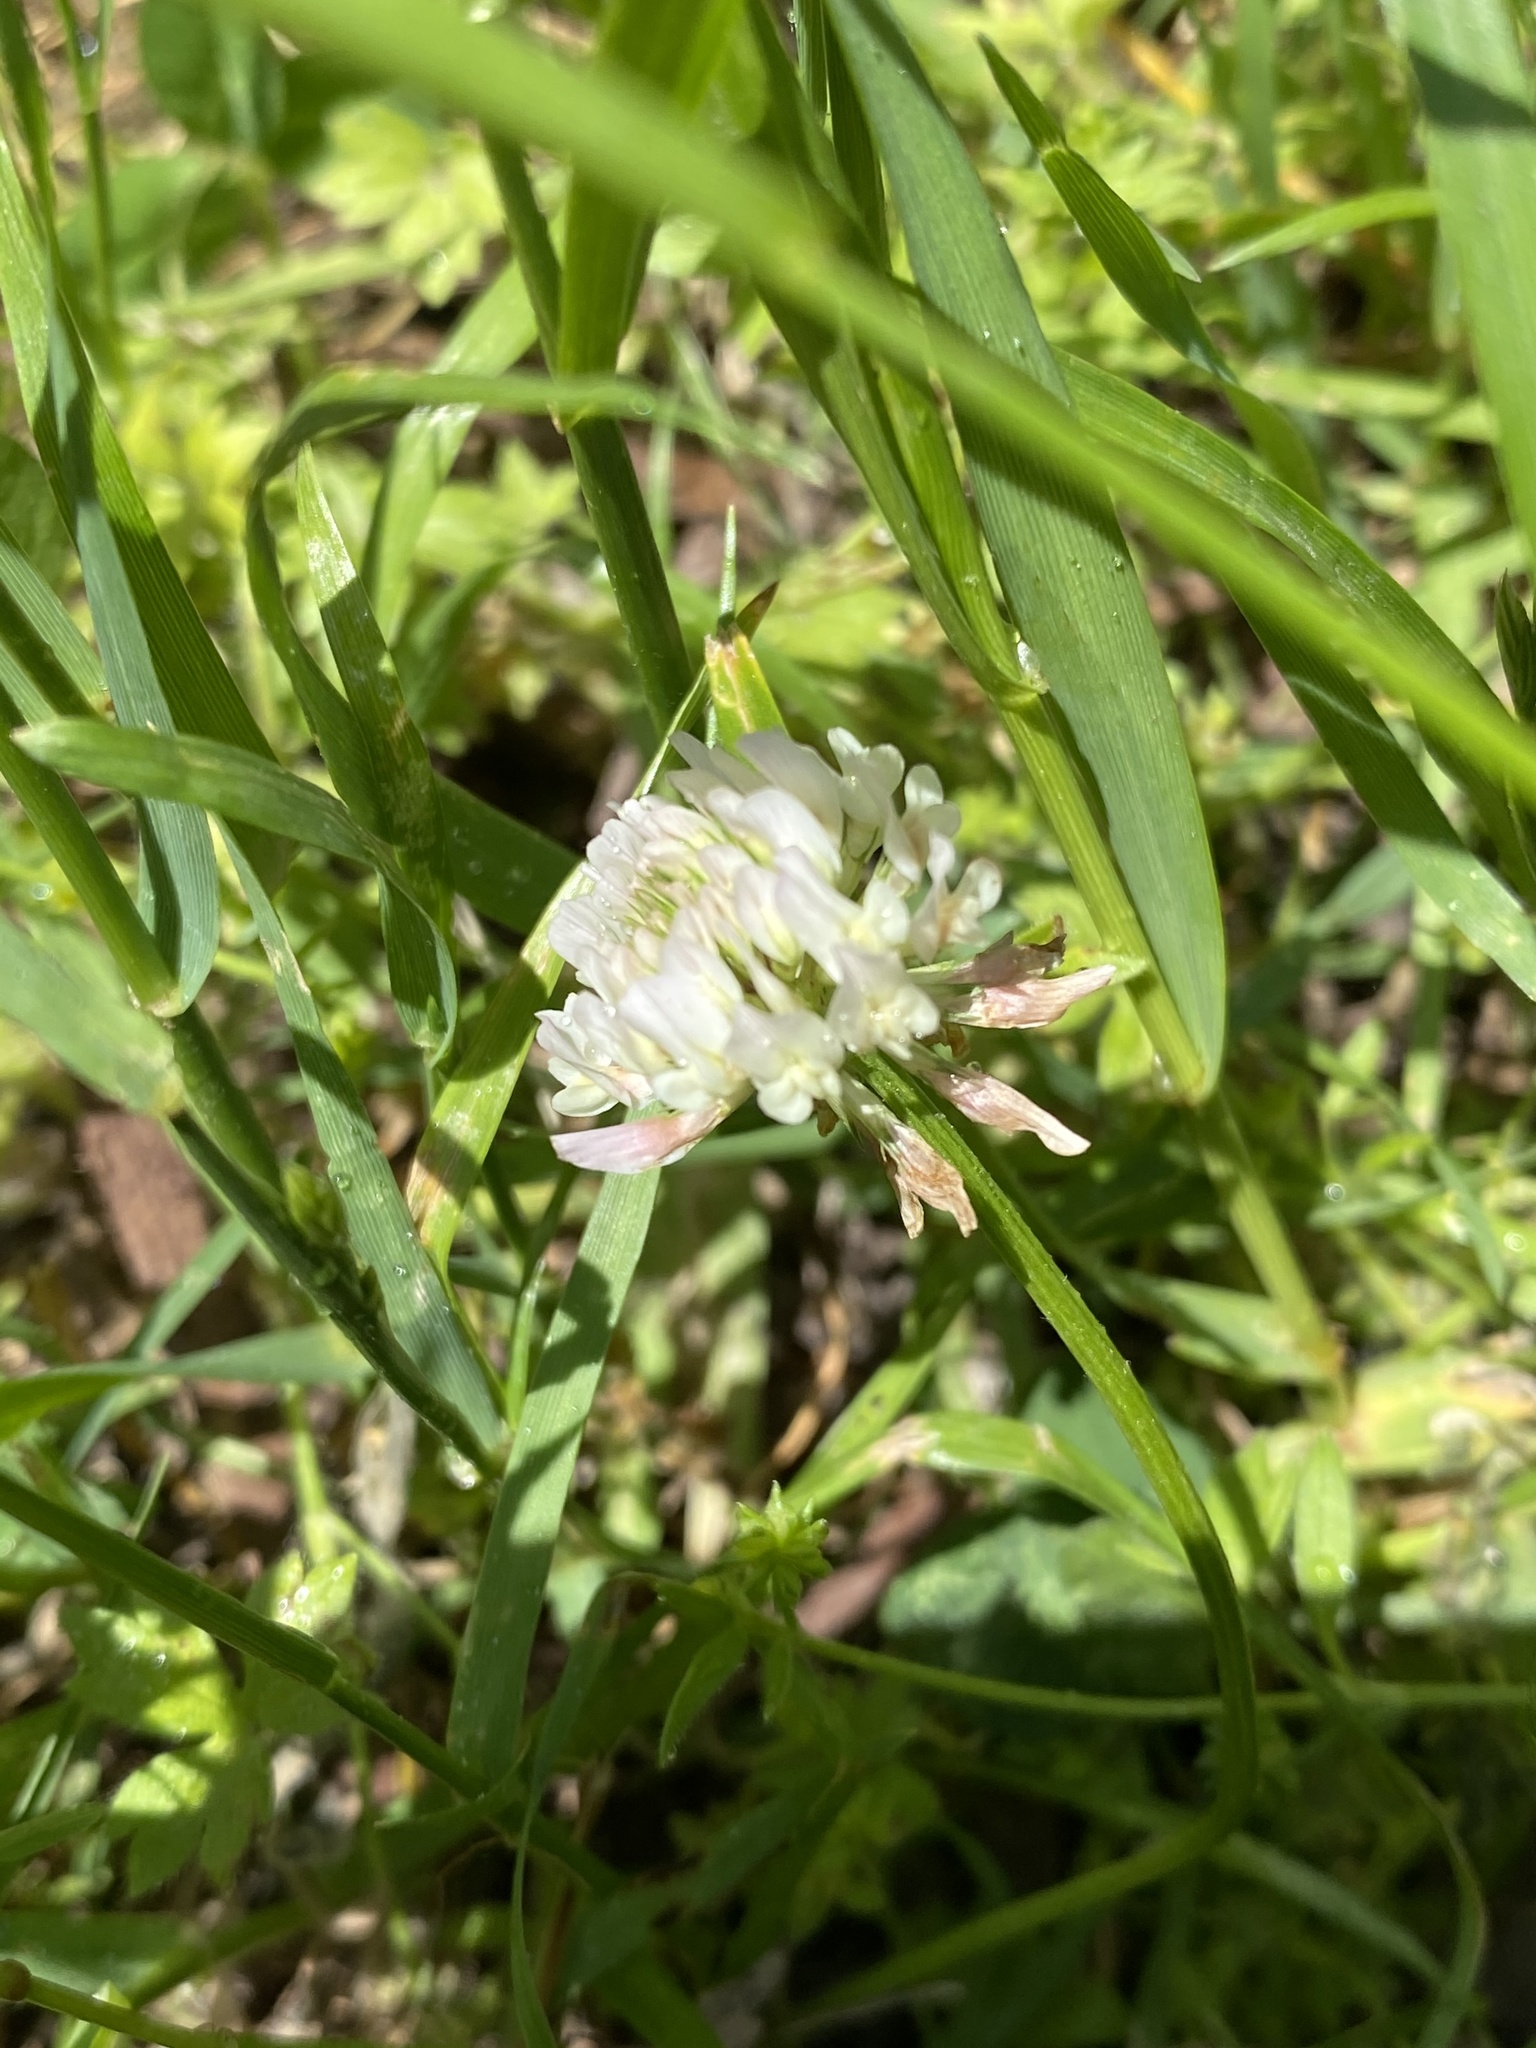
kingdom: Plantae
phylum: Tracheophyta
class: Magnoliopsida
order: Fabales
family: Fabaceae
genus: Trifolium
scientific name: Trifolium repens
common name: White clover
